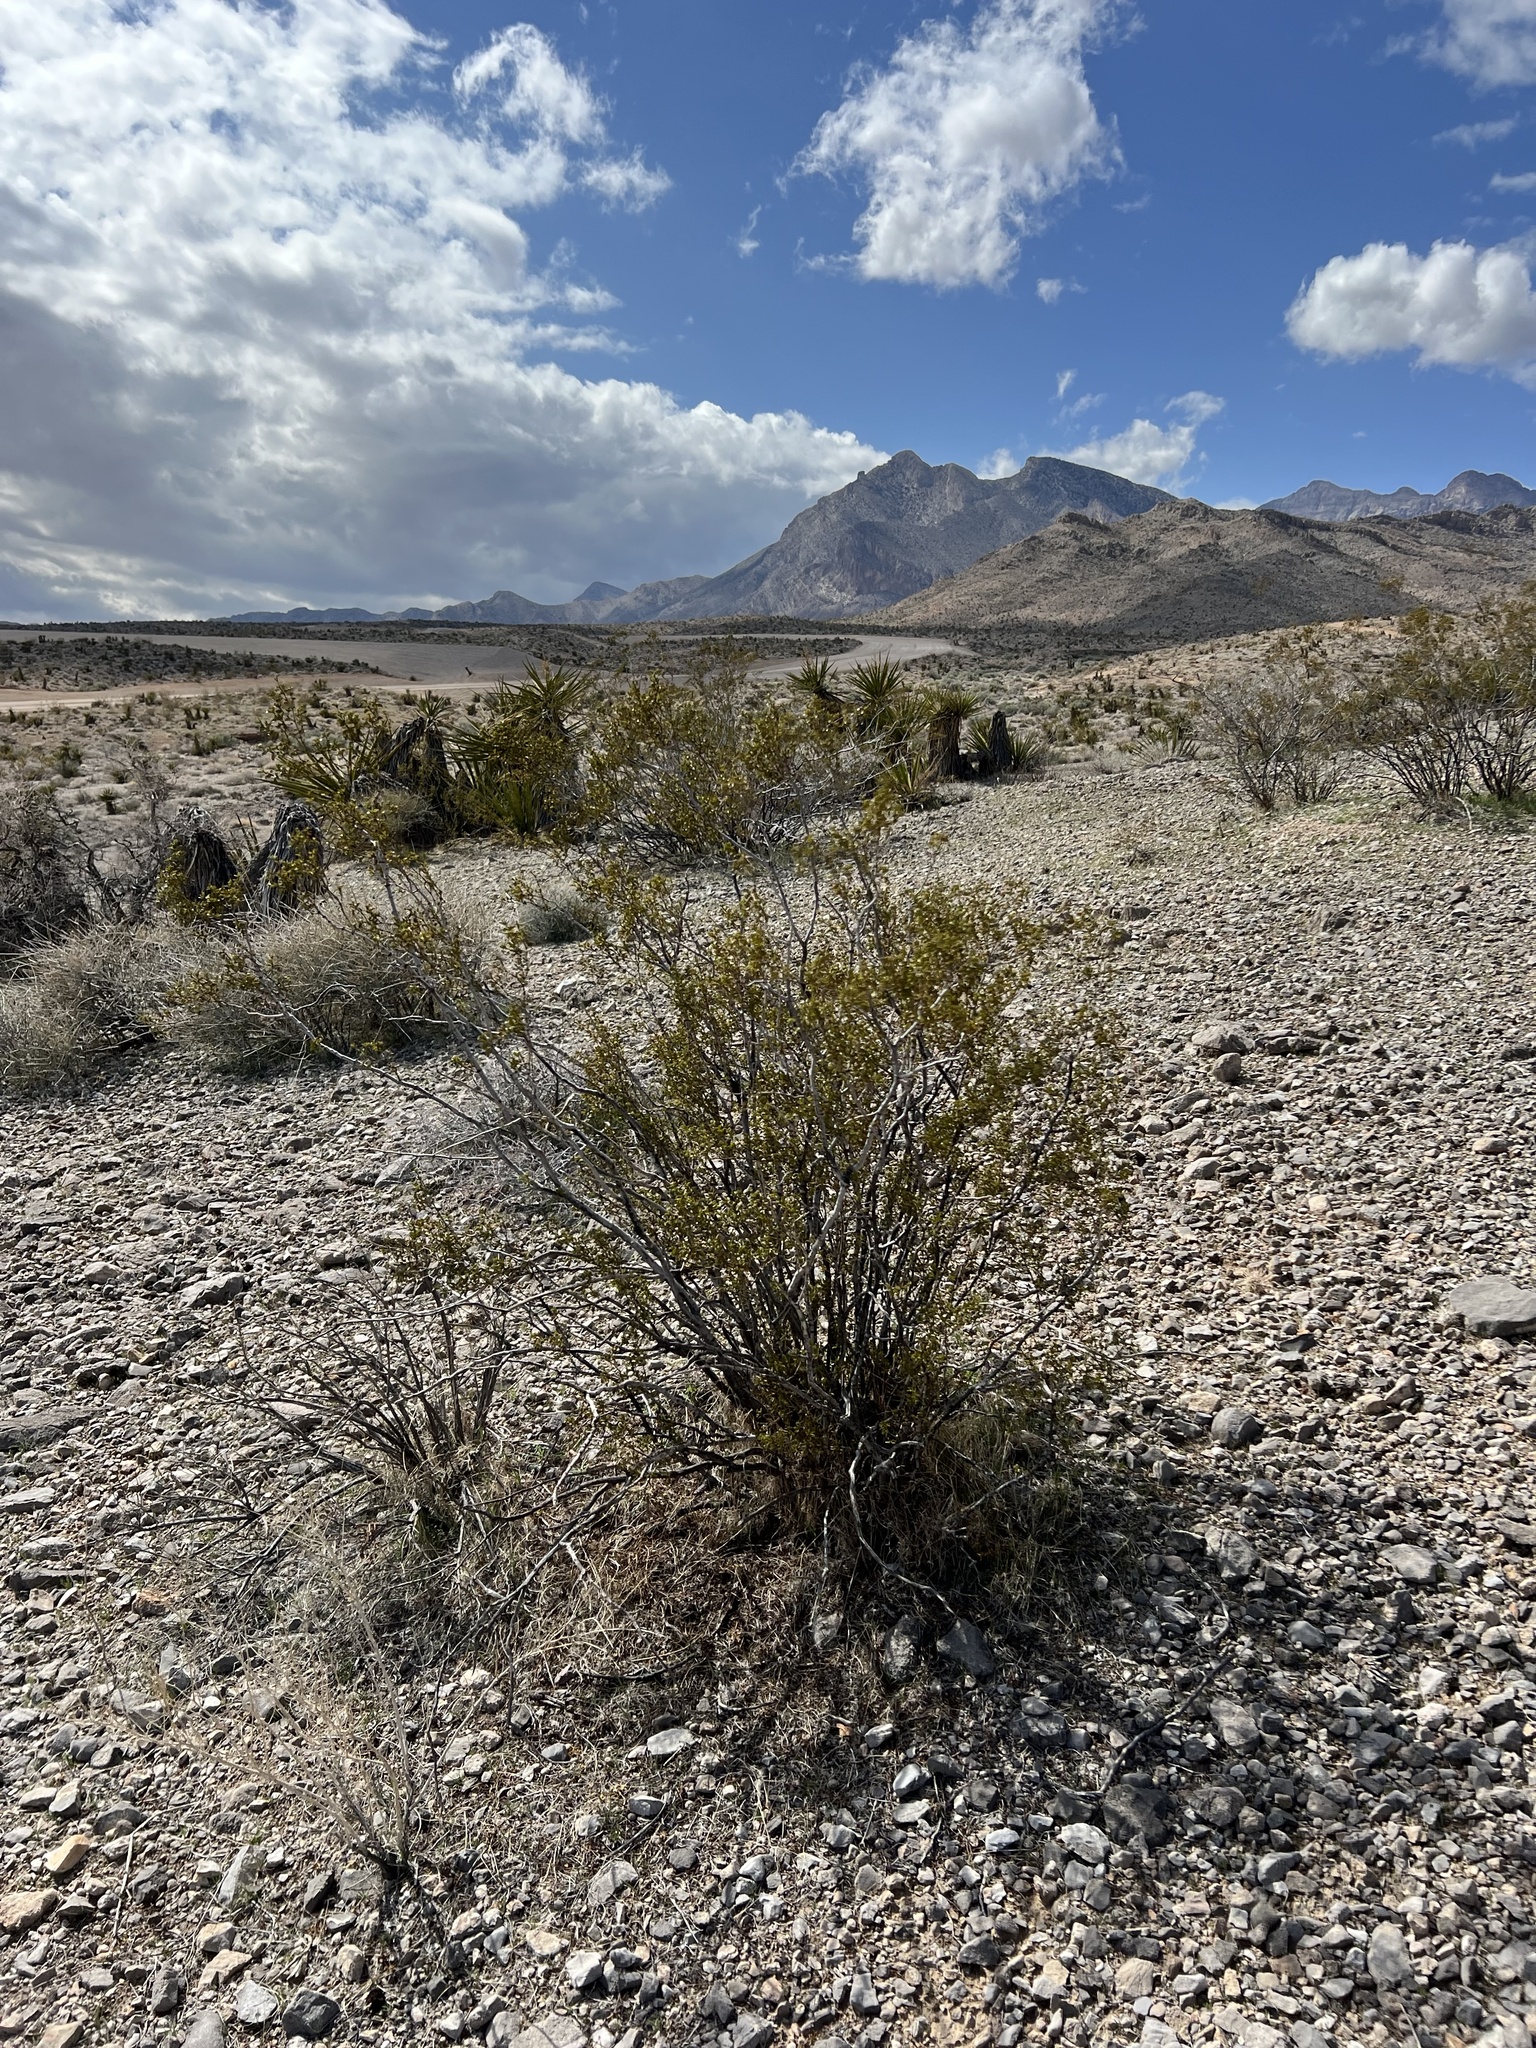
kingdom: Plantae
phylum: Tracheophyta
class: Magnoliopsida
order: Zygophyllales
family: Zygophyllaceae
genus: Larrea
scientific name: Larrea tridentata
